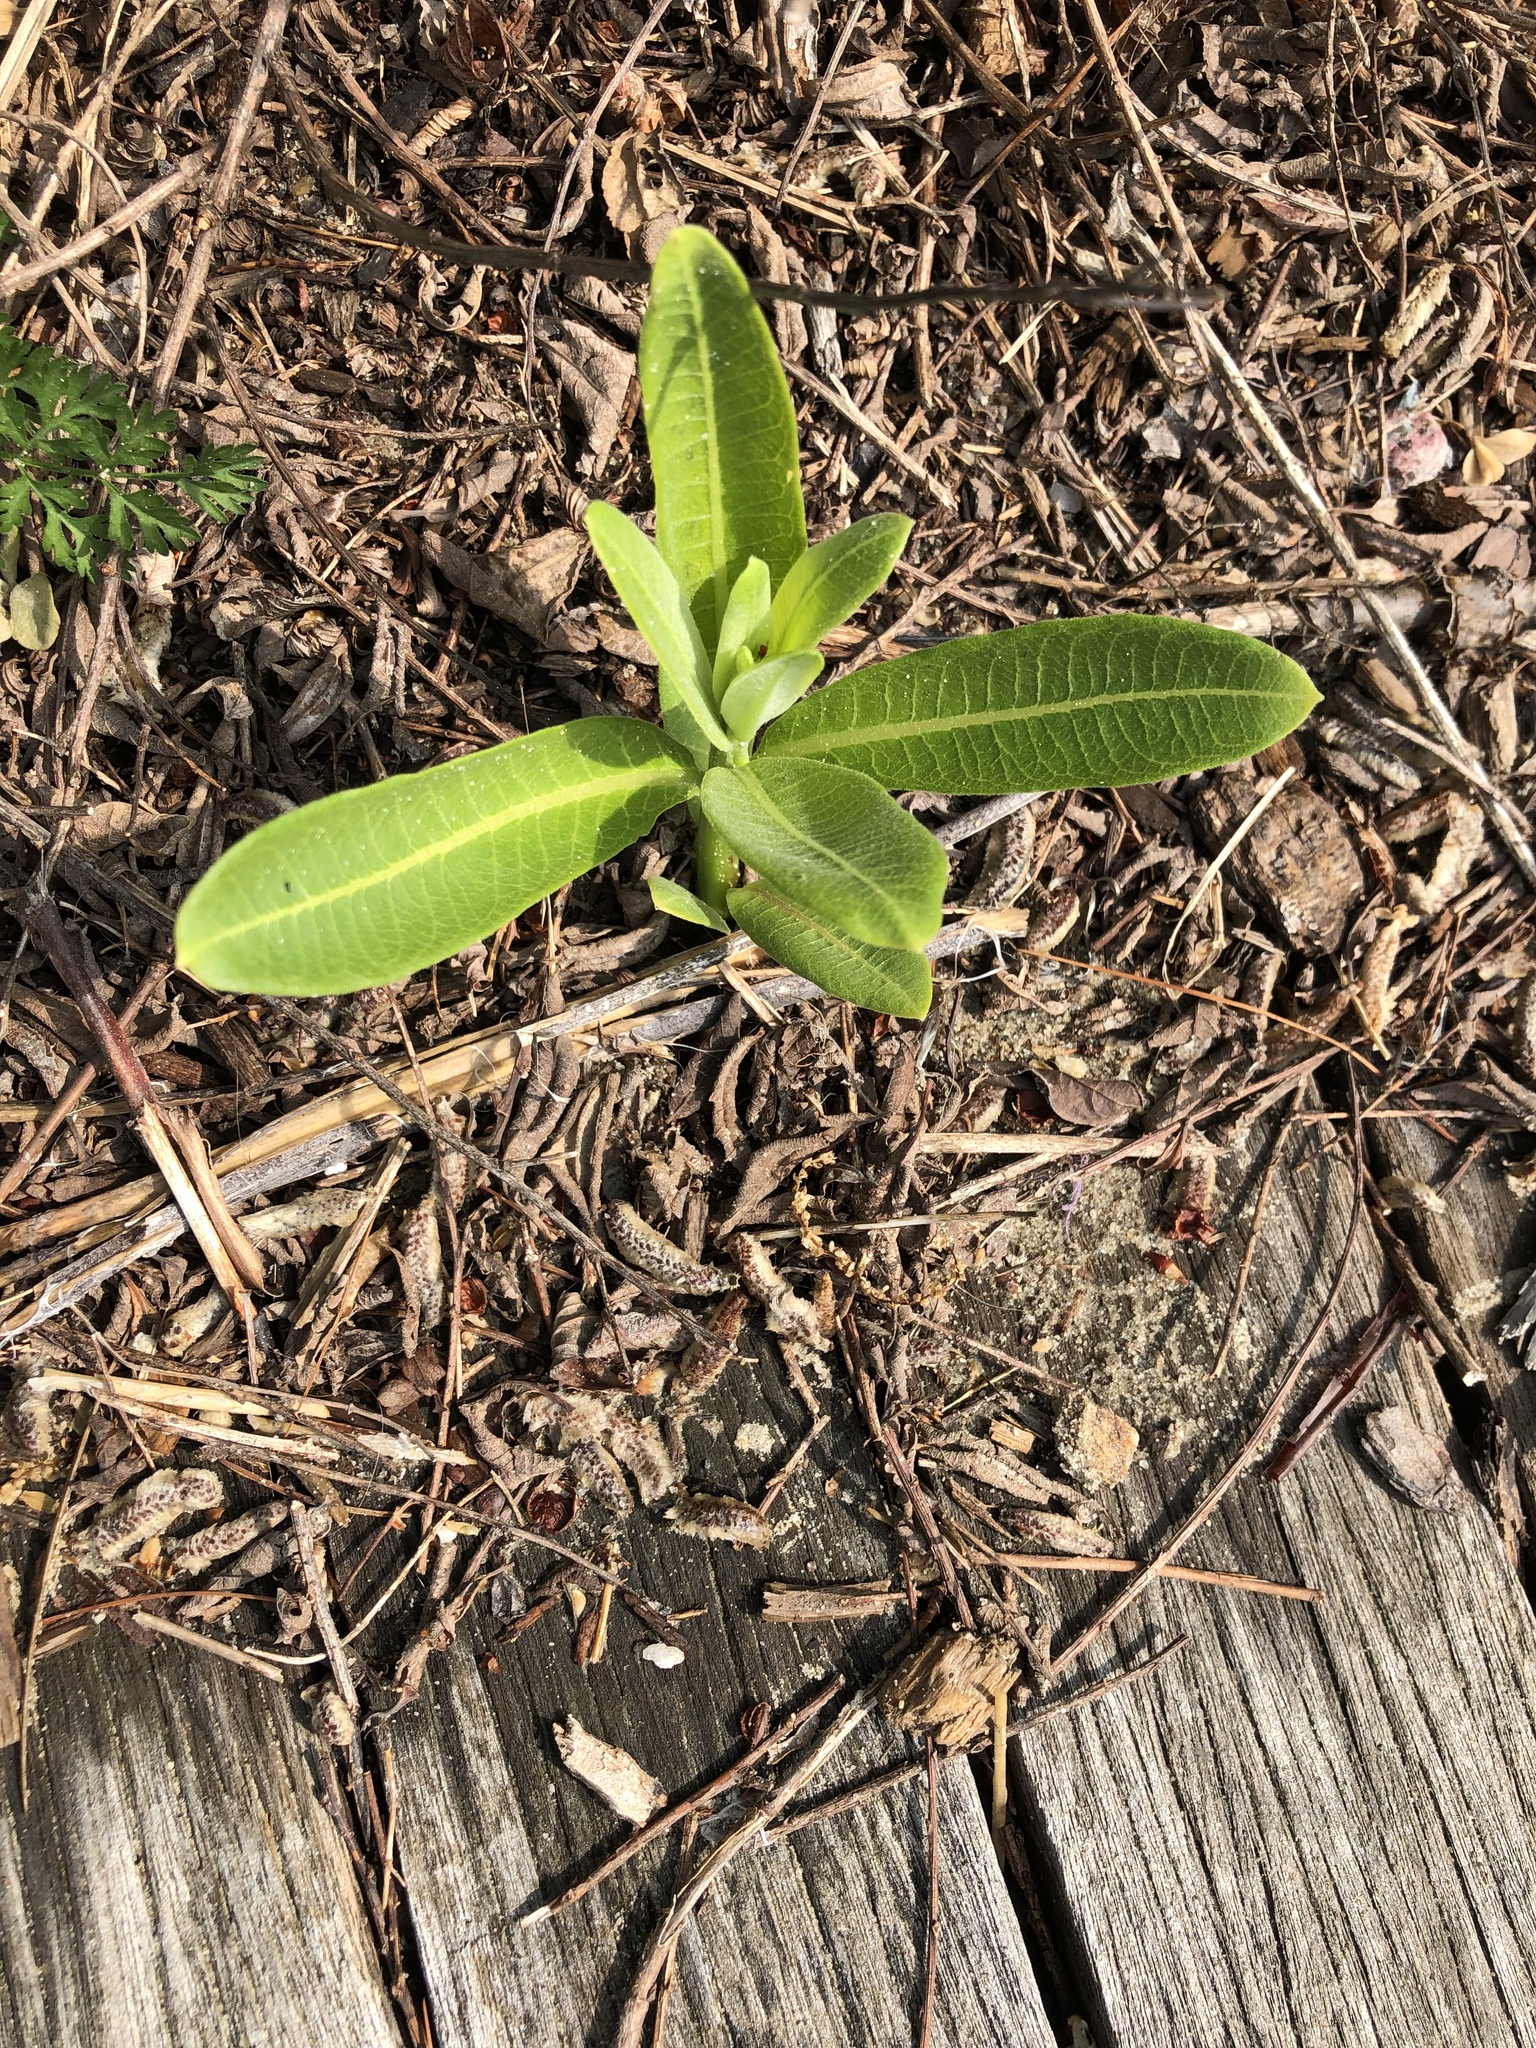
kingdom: Plantae
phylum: Tracheophyta
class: Magnoliopsida
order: Gentianales
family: Apocynaceae
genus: Asclepias
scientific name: Asclepias syriaca
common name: Common milkweed
